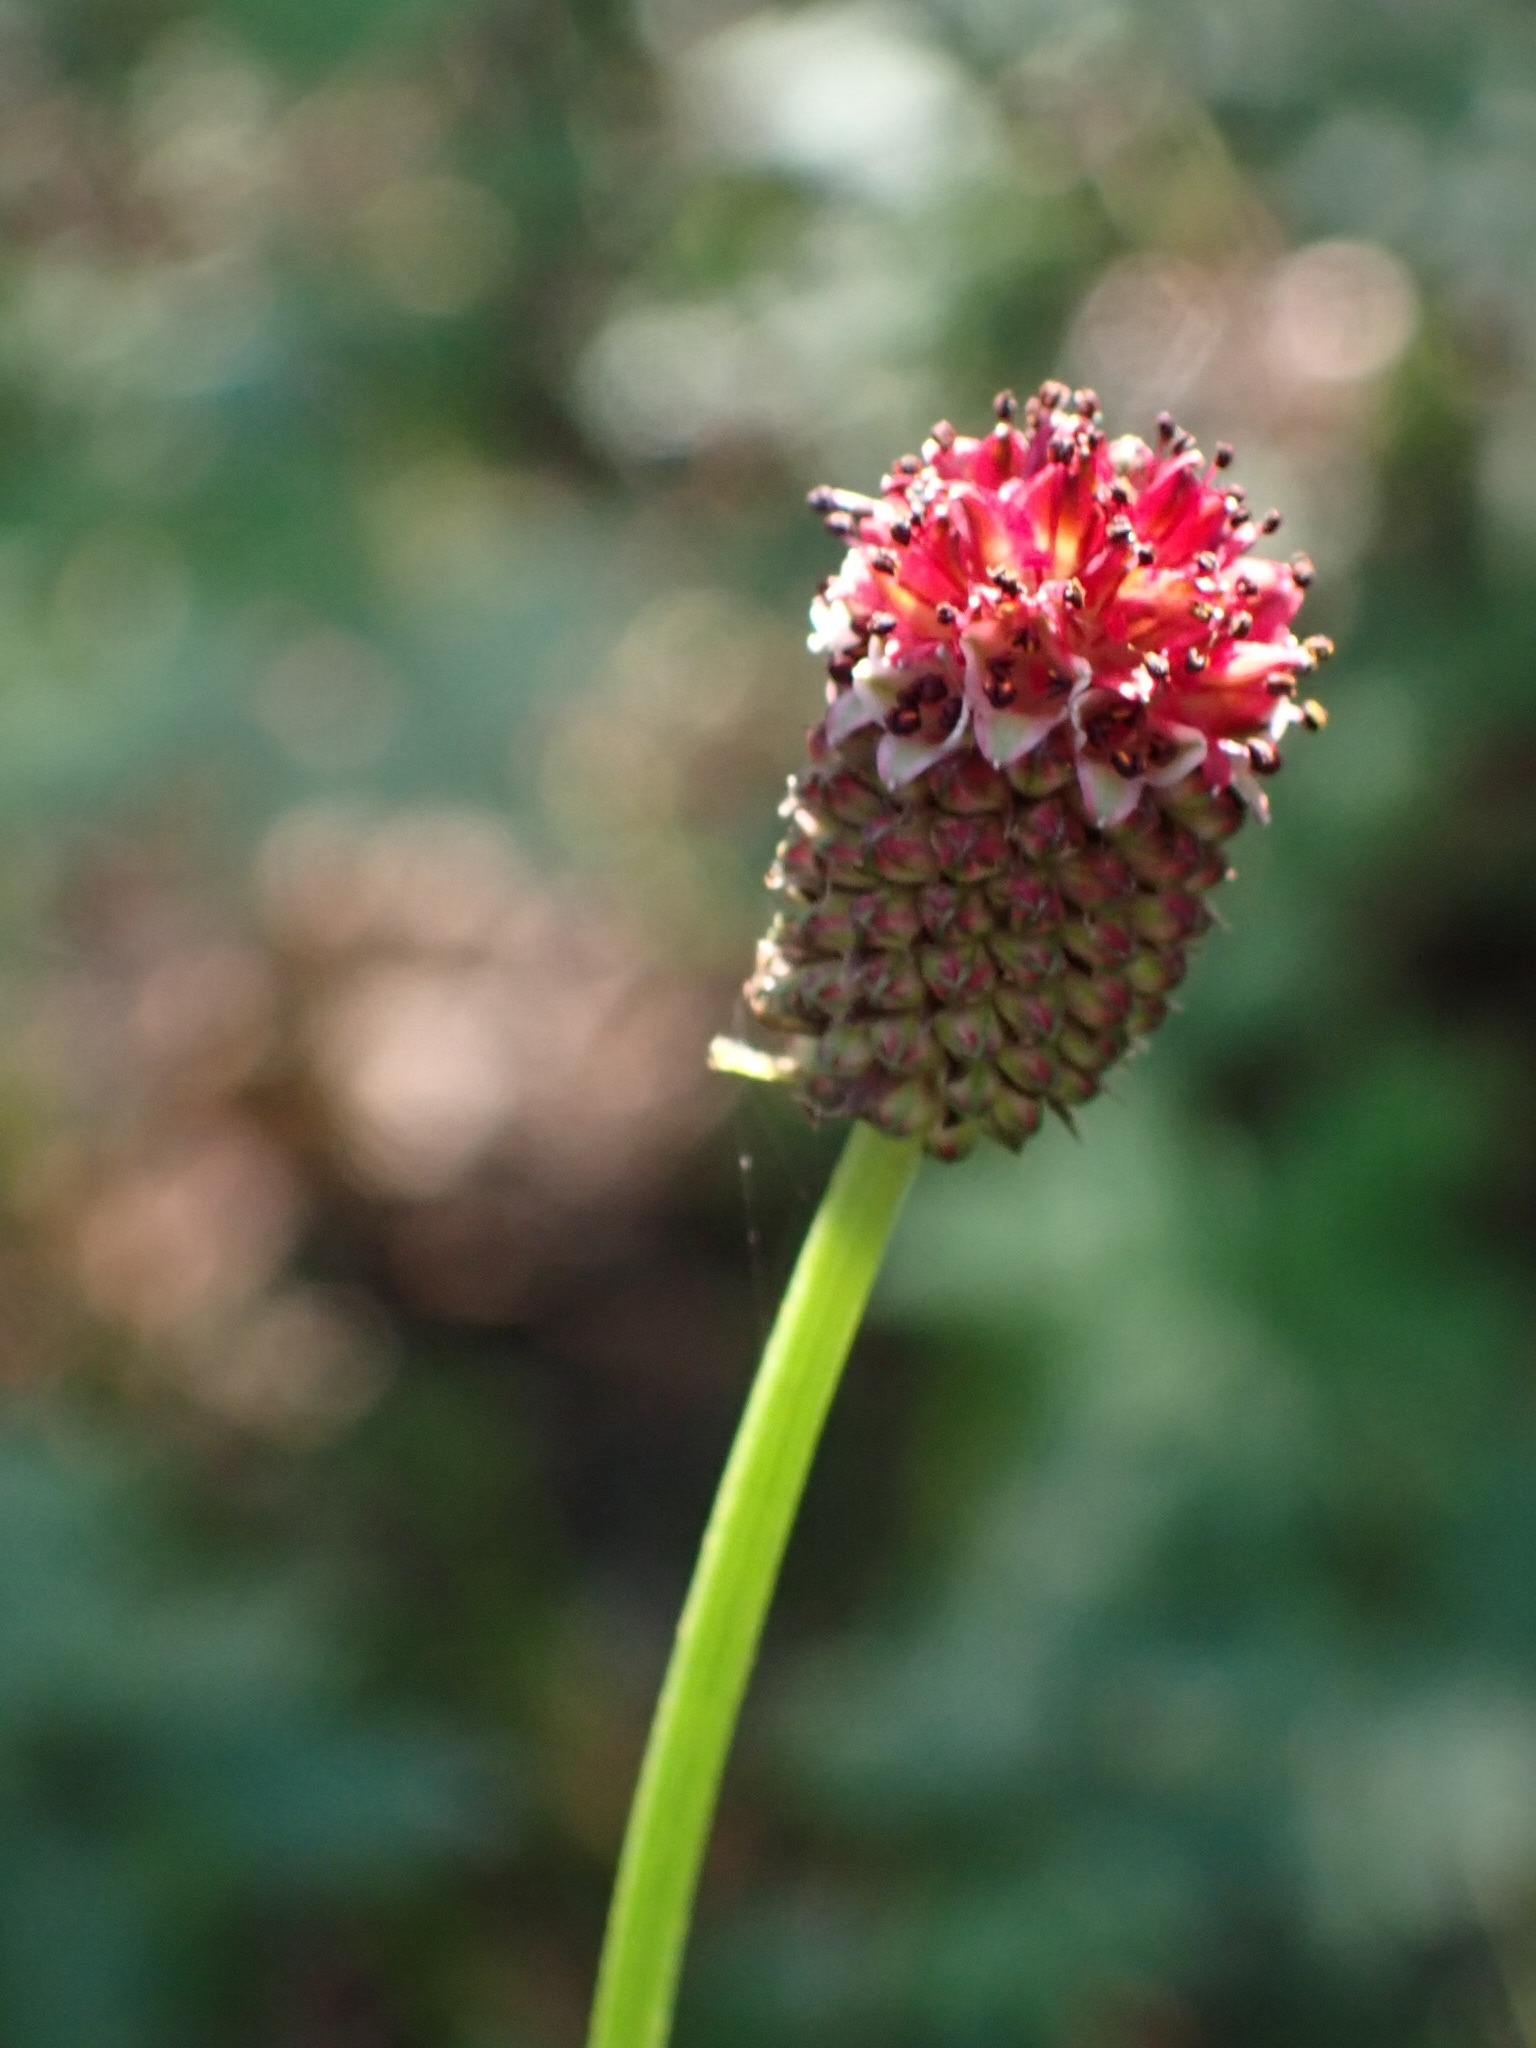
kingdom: Plantae
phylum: Tracheophyta
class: Magnoliopsida
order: Rosales
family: Rosaceae
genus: Sanguisorba
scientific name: Sanguisorba officinalis
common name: Great burnet
